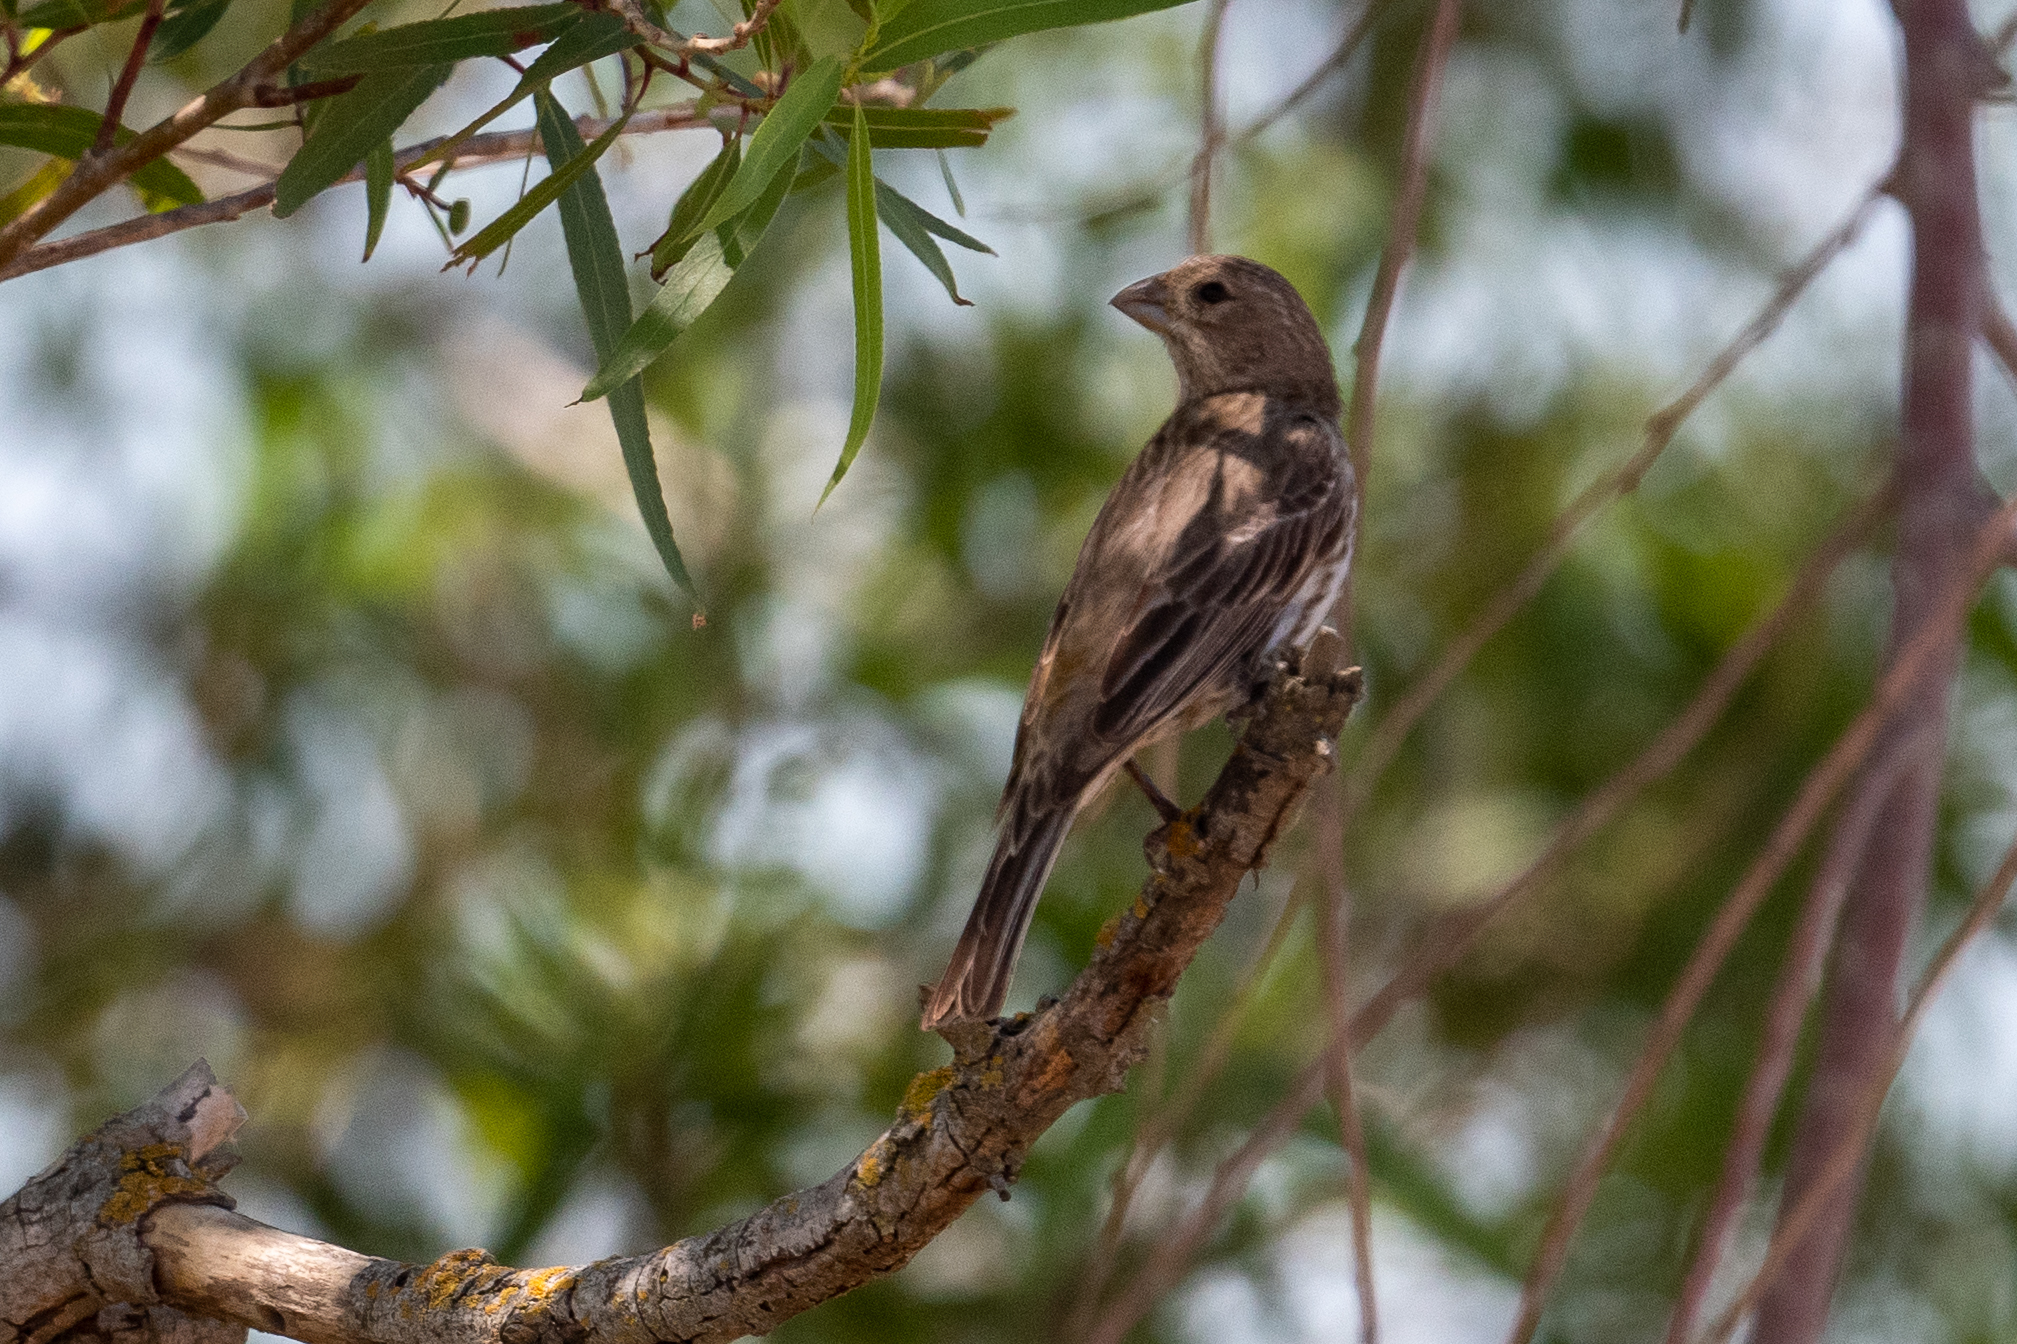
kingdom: Animalia
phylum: Chordata
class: Aves
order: Passeriformes
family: Fringillidae
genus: Haemorhous
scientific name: Haemorhous mexicanus
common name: House finch
